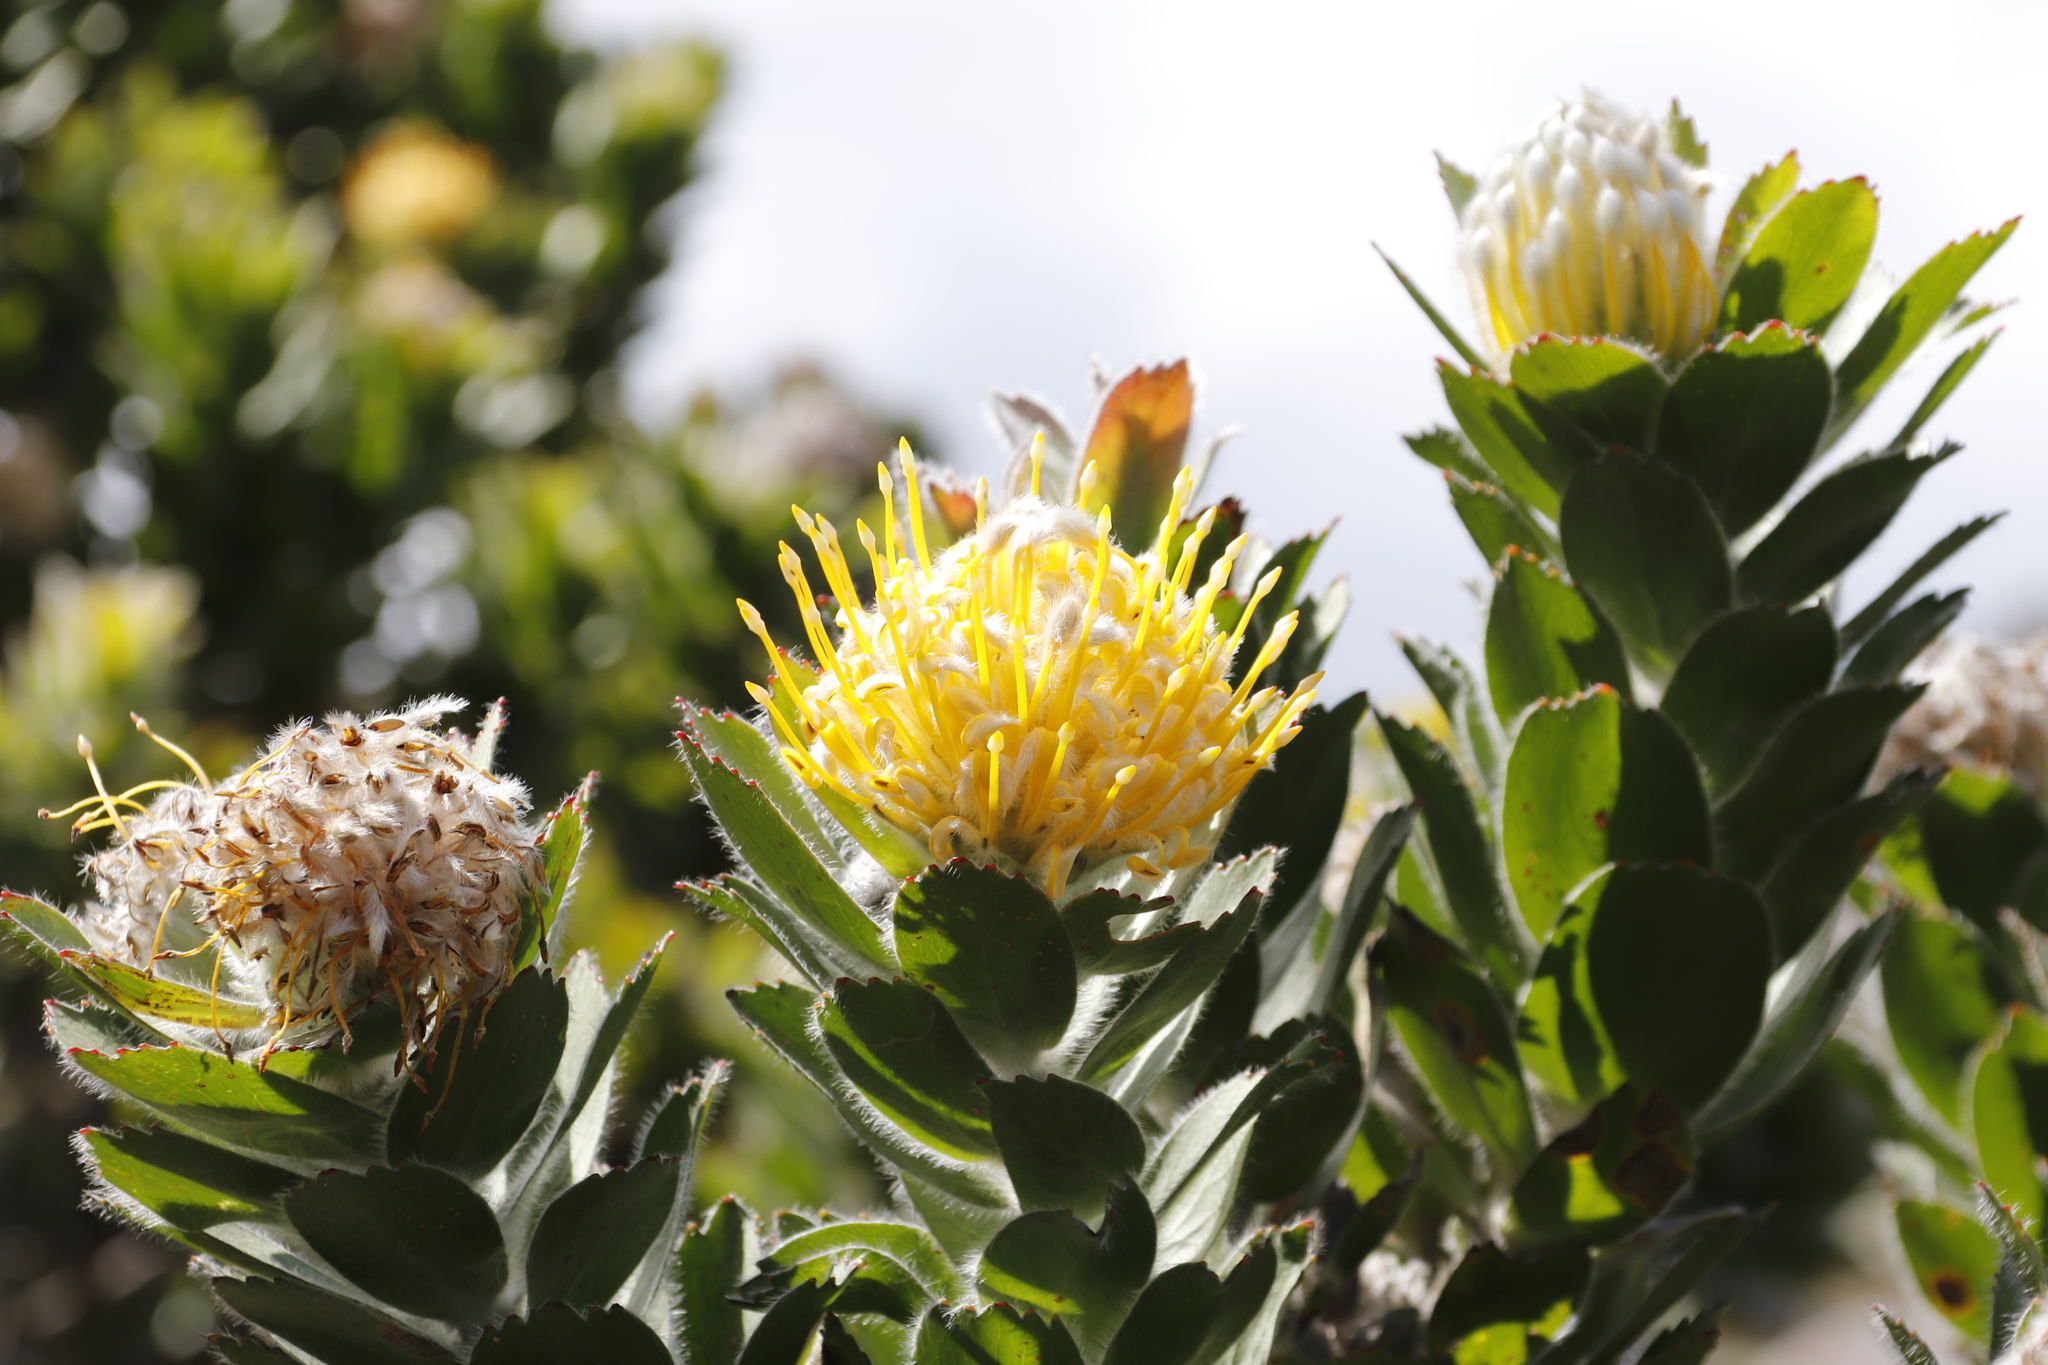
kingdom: Plantae
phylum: Tracheophyta
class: Magnoliopsida
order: Proteales
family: Proteaceae
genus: Leucospermum
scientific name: Leucospermum conocarpodendron
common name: Tree pincushion
